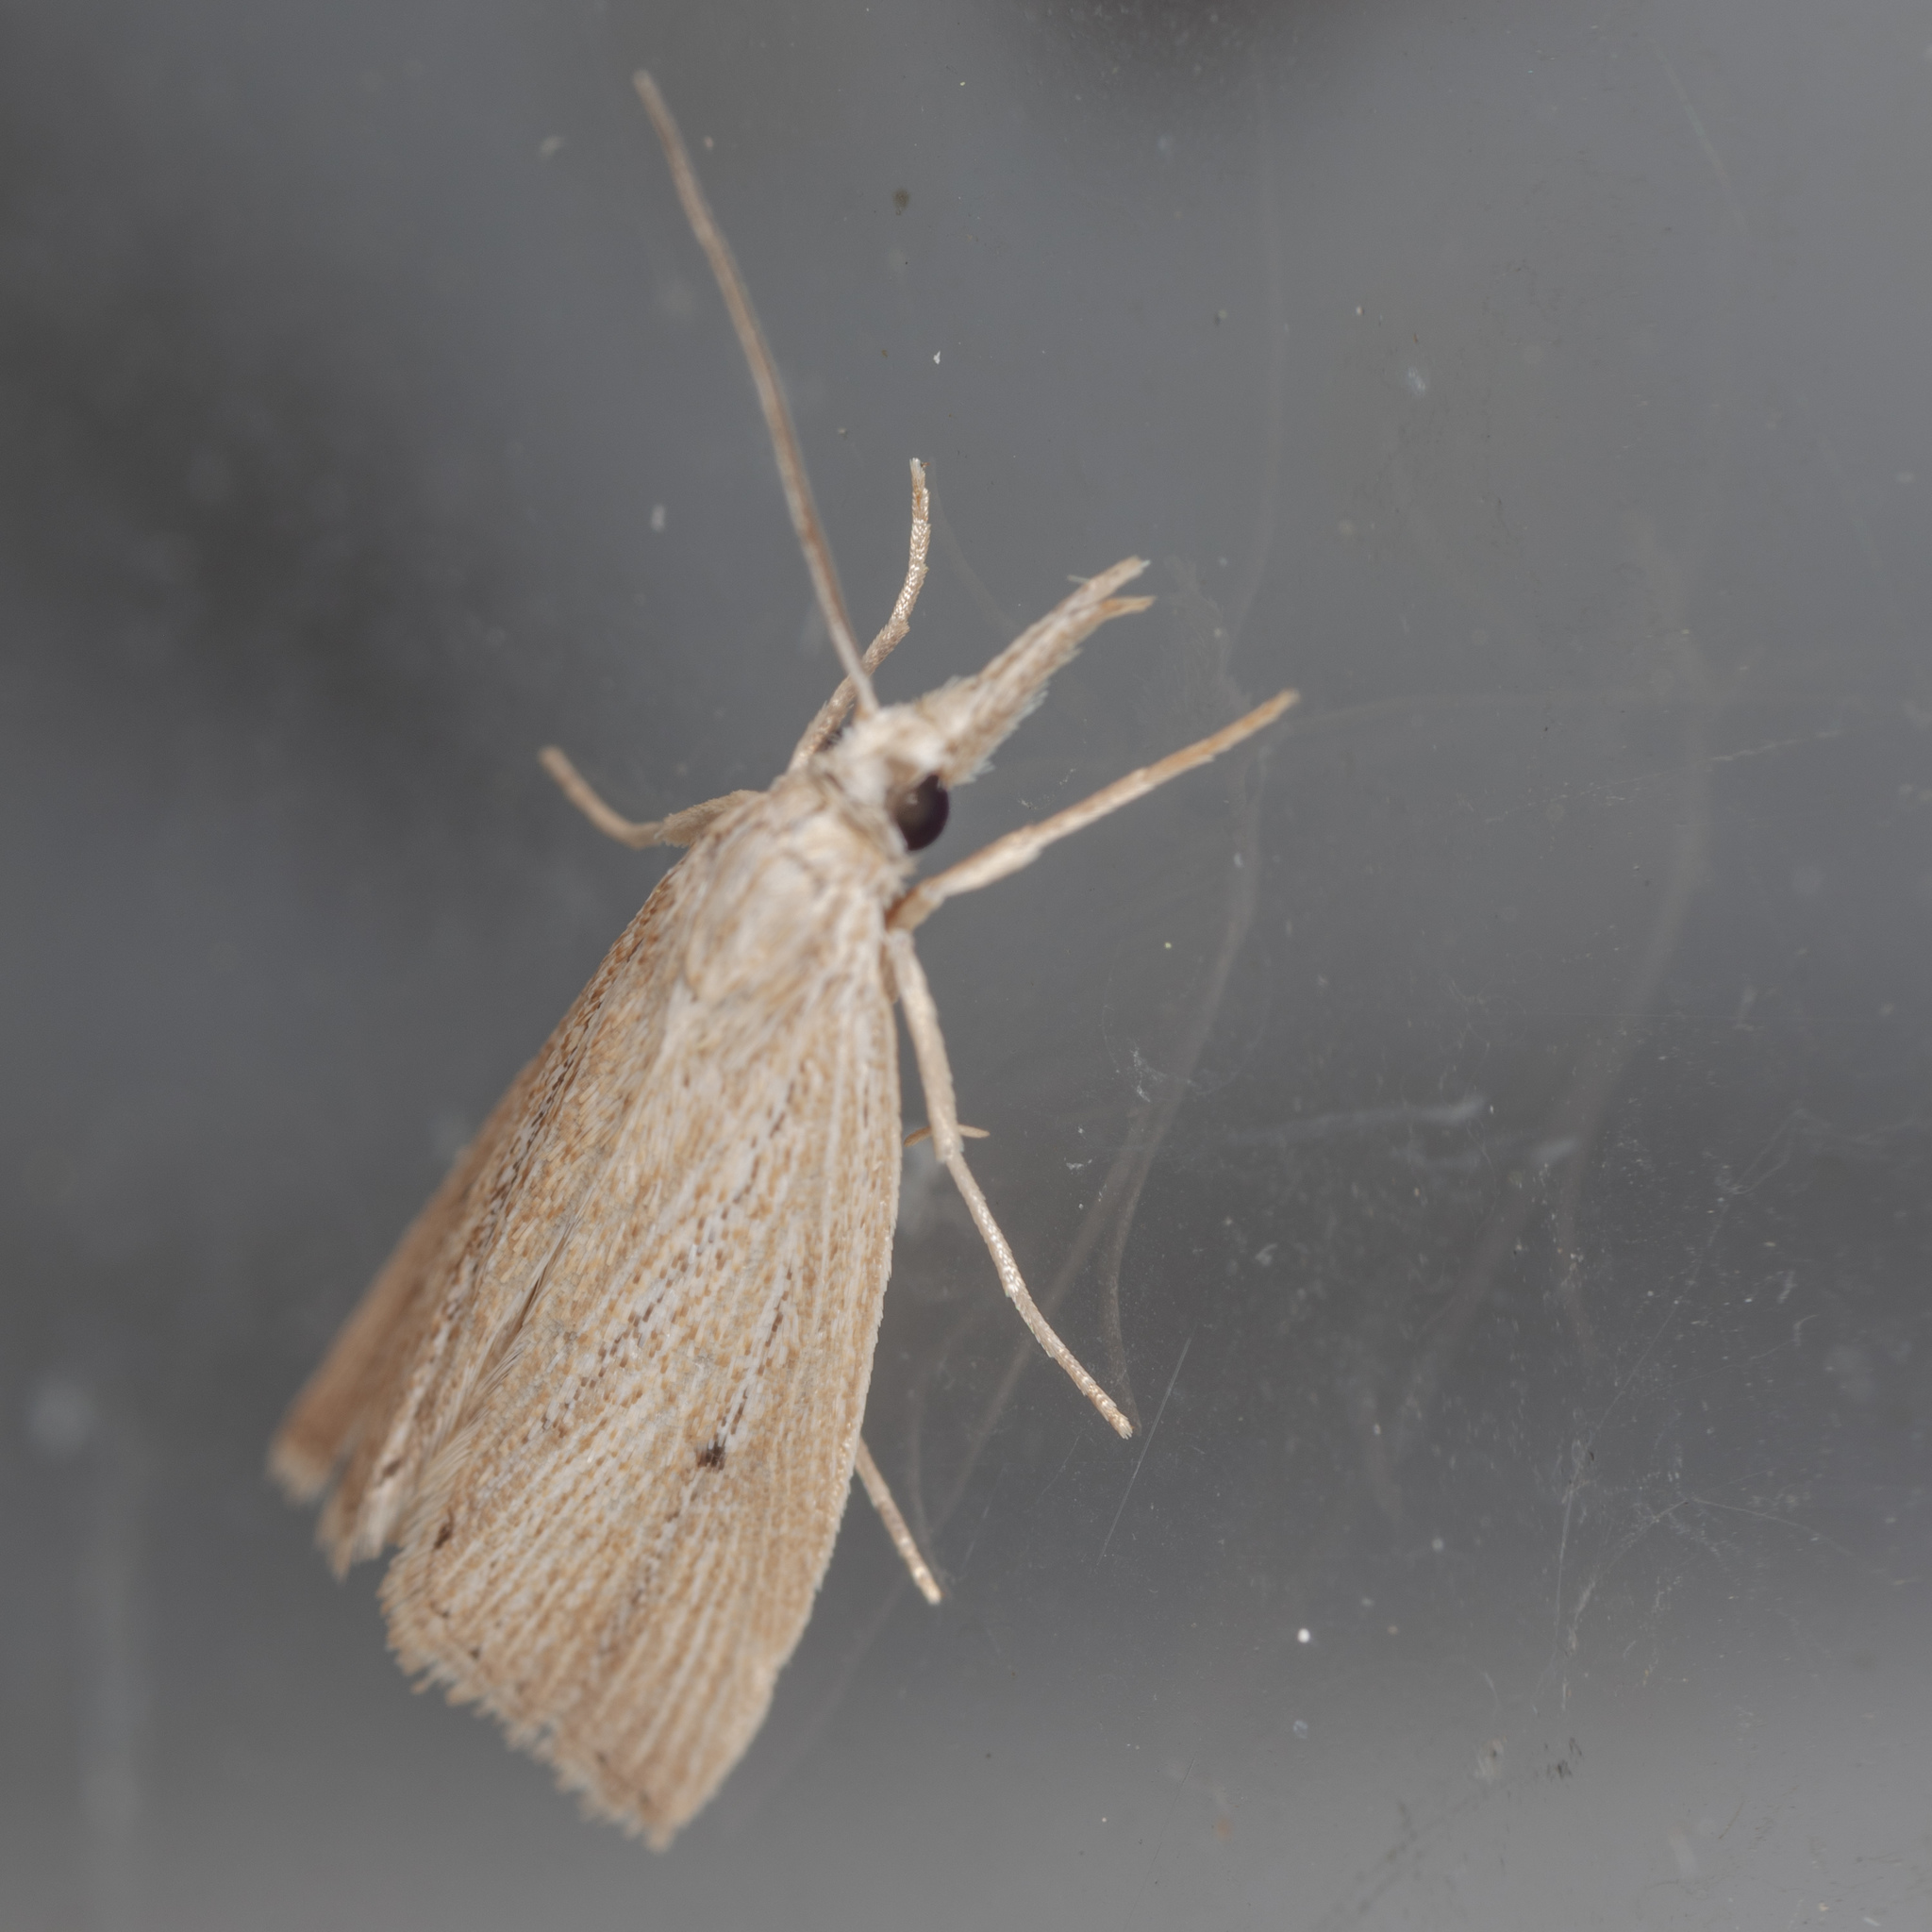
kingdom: Animalia
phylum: Arthropoda
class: Insecta
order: Lepidoptera
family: Crambidae
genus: Eoreuma
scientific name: Eoreuma densellus
